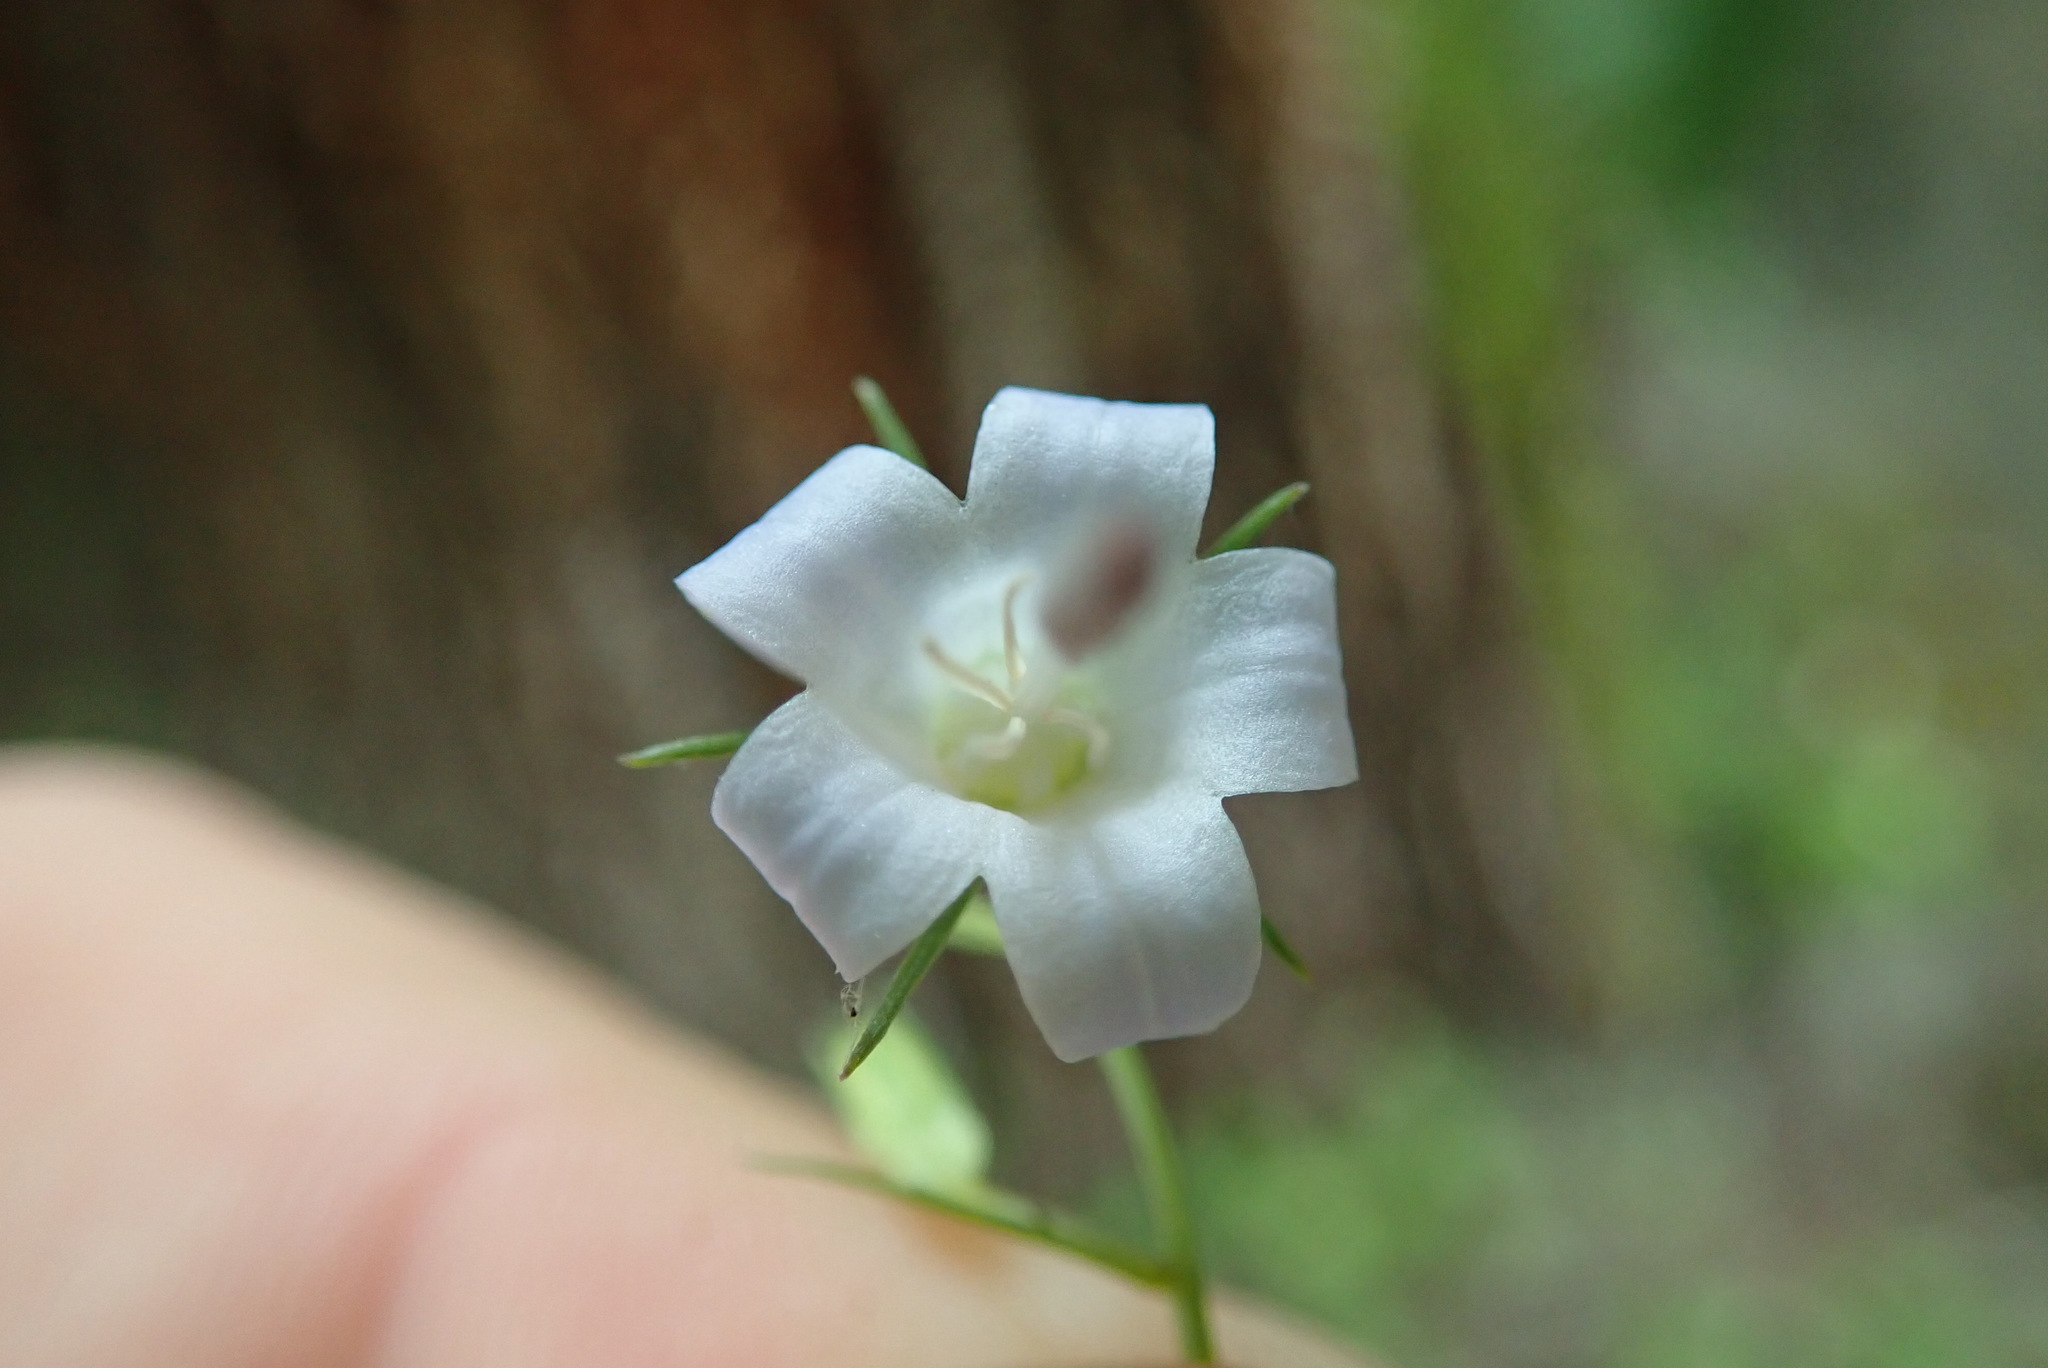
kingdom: Plantae
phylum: Tracheophyta
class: Magnoliopsida
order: Asterales
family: Campanulaceae
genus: Campanula
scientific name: Campanula scouleri
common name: Scouler's harebell
